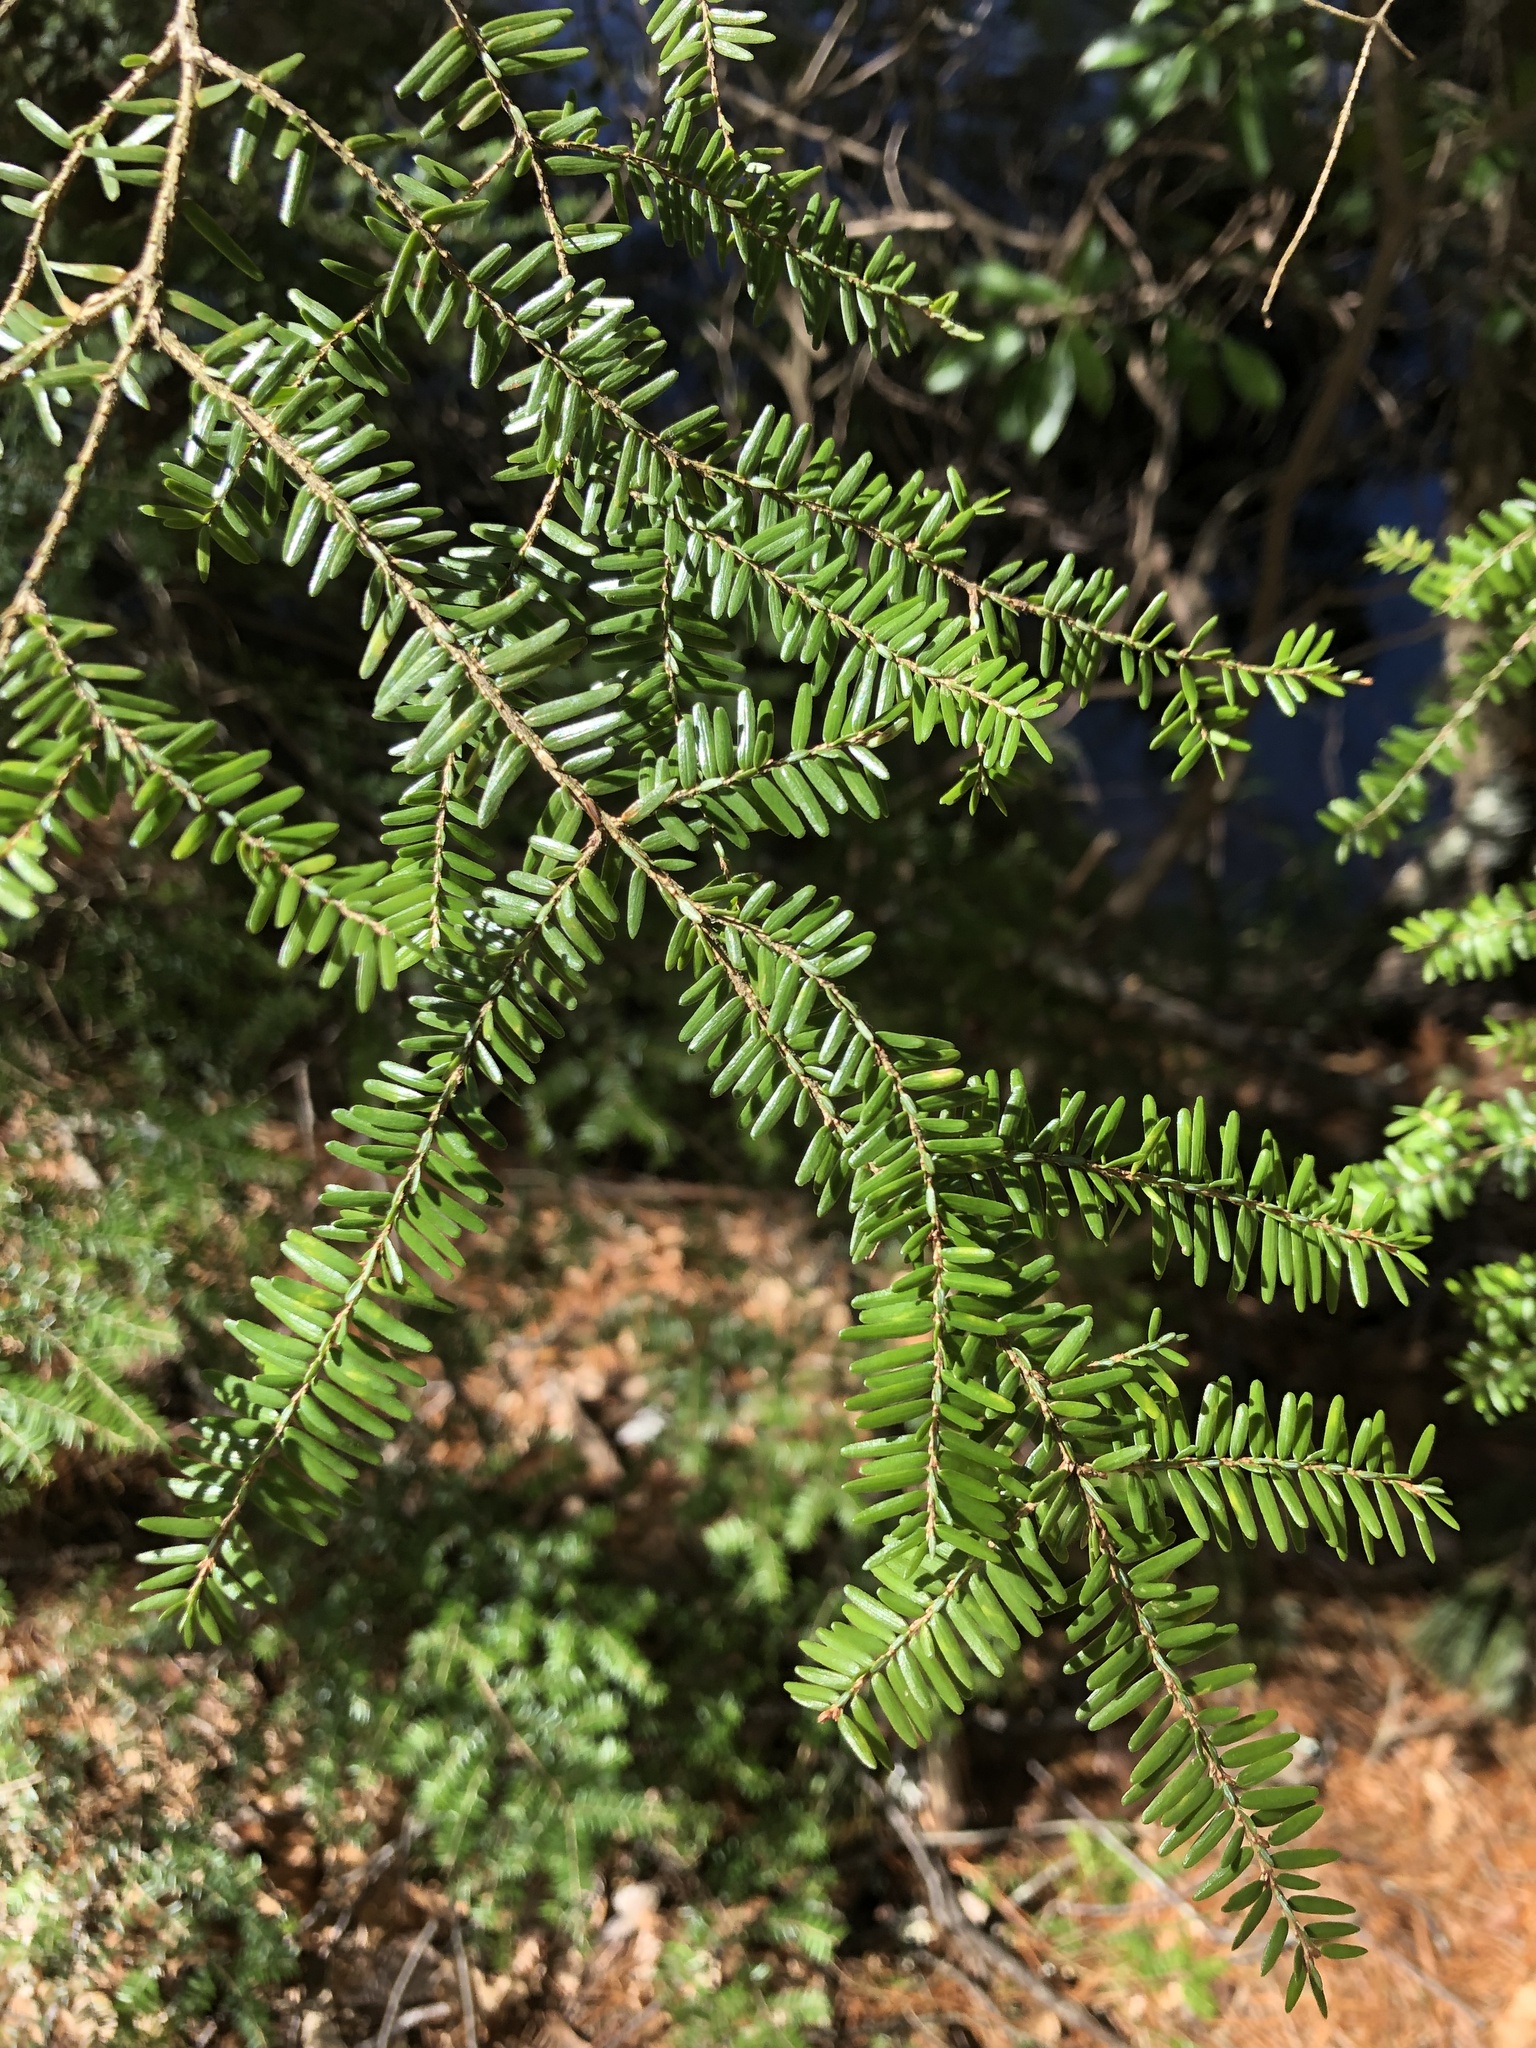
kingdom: Plantae
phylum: Tracheophyta
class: Pinopsida
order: Pinales
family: Pinaceae
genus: Tsuga
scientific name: Tsuga canadensis
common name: Eastern hemlock
